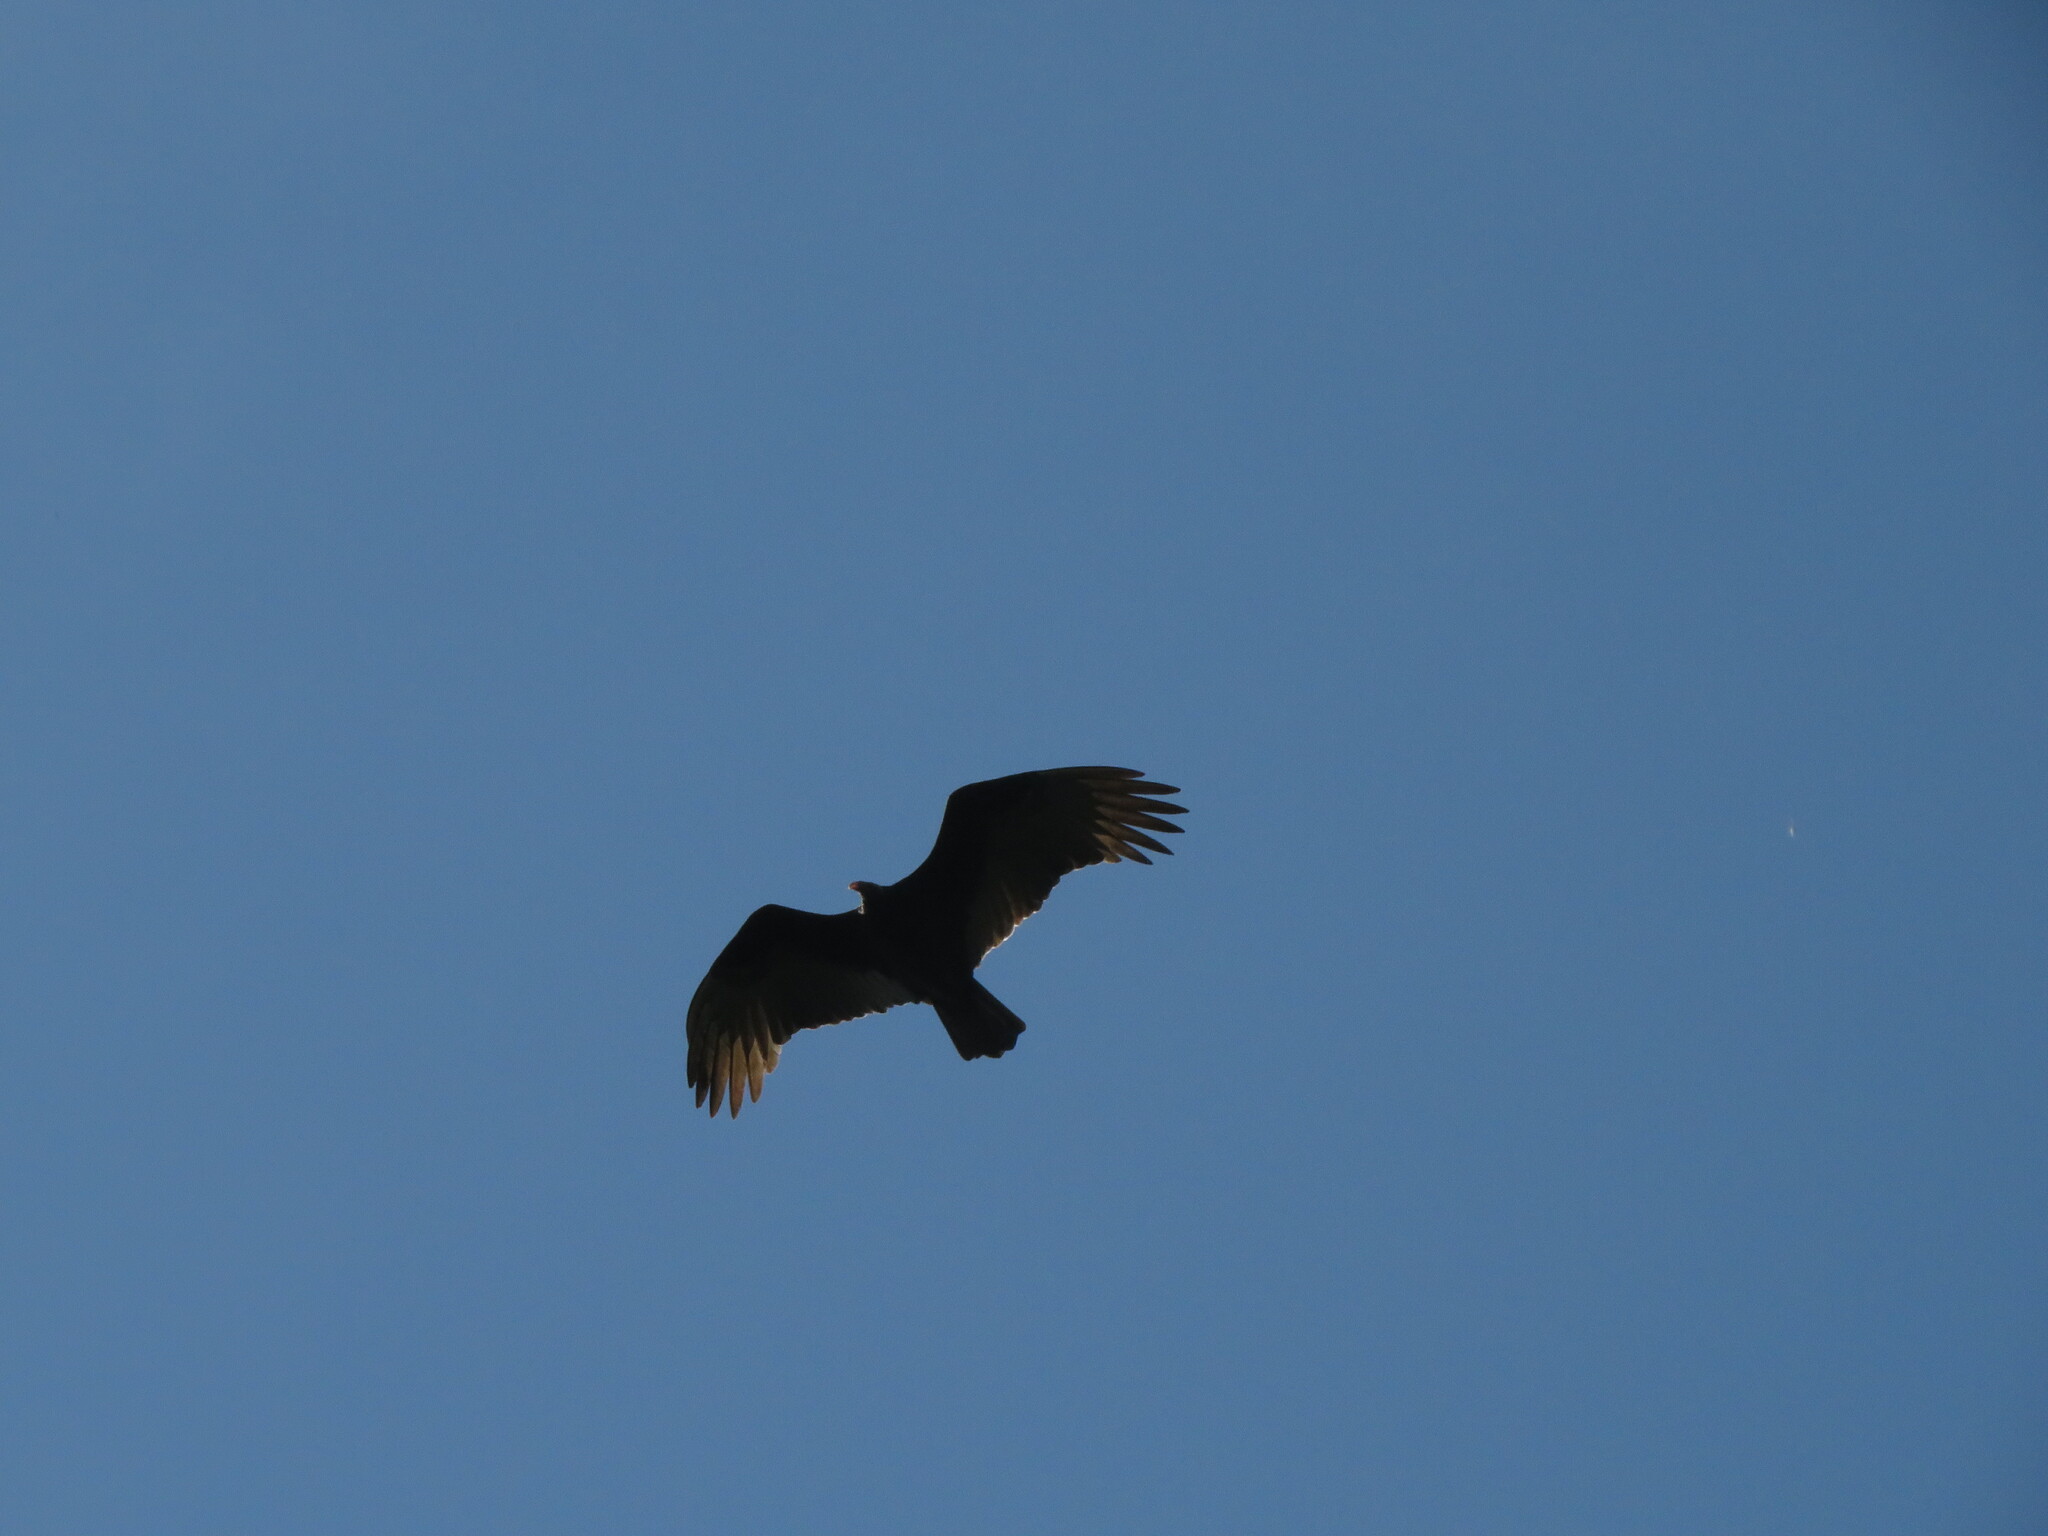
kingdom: Animalia
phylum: Chordata
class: Aves
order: Accipitriformes
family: Cathartidae
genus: Cathartes
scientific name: Cathartes aura
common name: Turkey vulture
